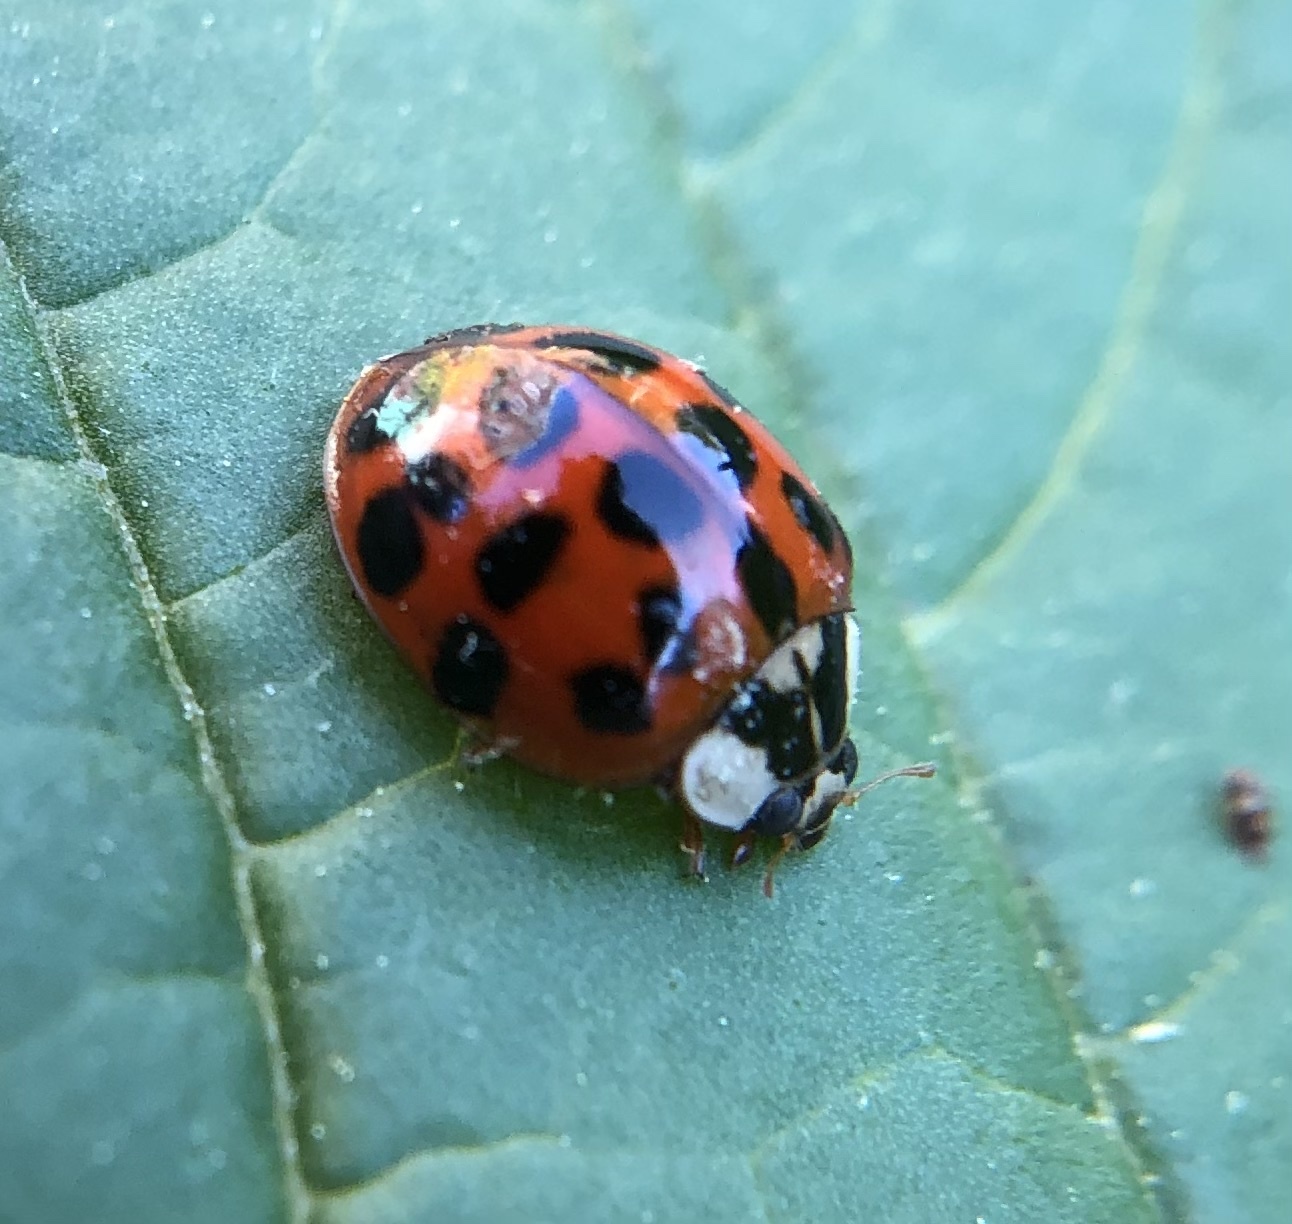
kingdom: Animalia
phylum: Arthropoda
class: Insecta
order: Coleoptera
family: Coccinellidae
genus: Harmonia
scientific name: Harmonia axyridis
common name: Harlequin ladybird
